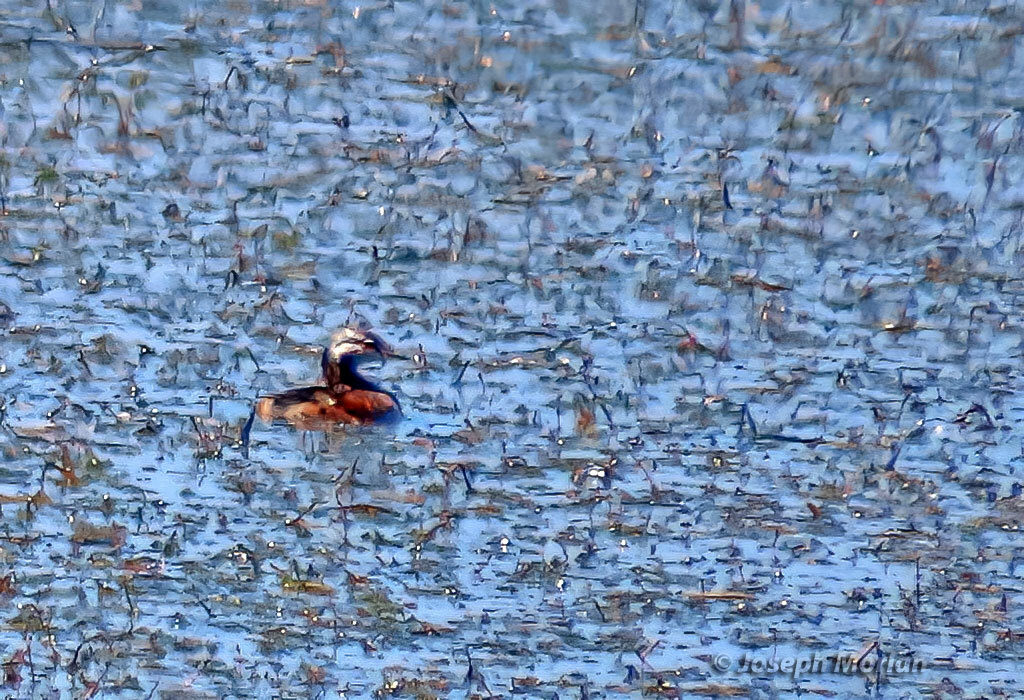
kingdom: Animalia
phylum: Chordata
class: Aves
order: Podicipediformes
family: Podicipedidae
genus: Rollandia
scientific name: Rollandia rolland
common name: White-tufted grebe
